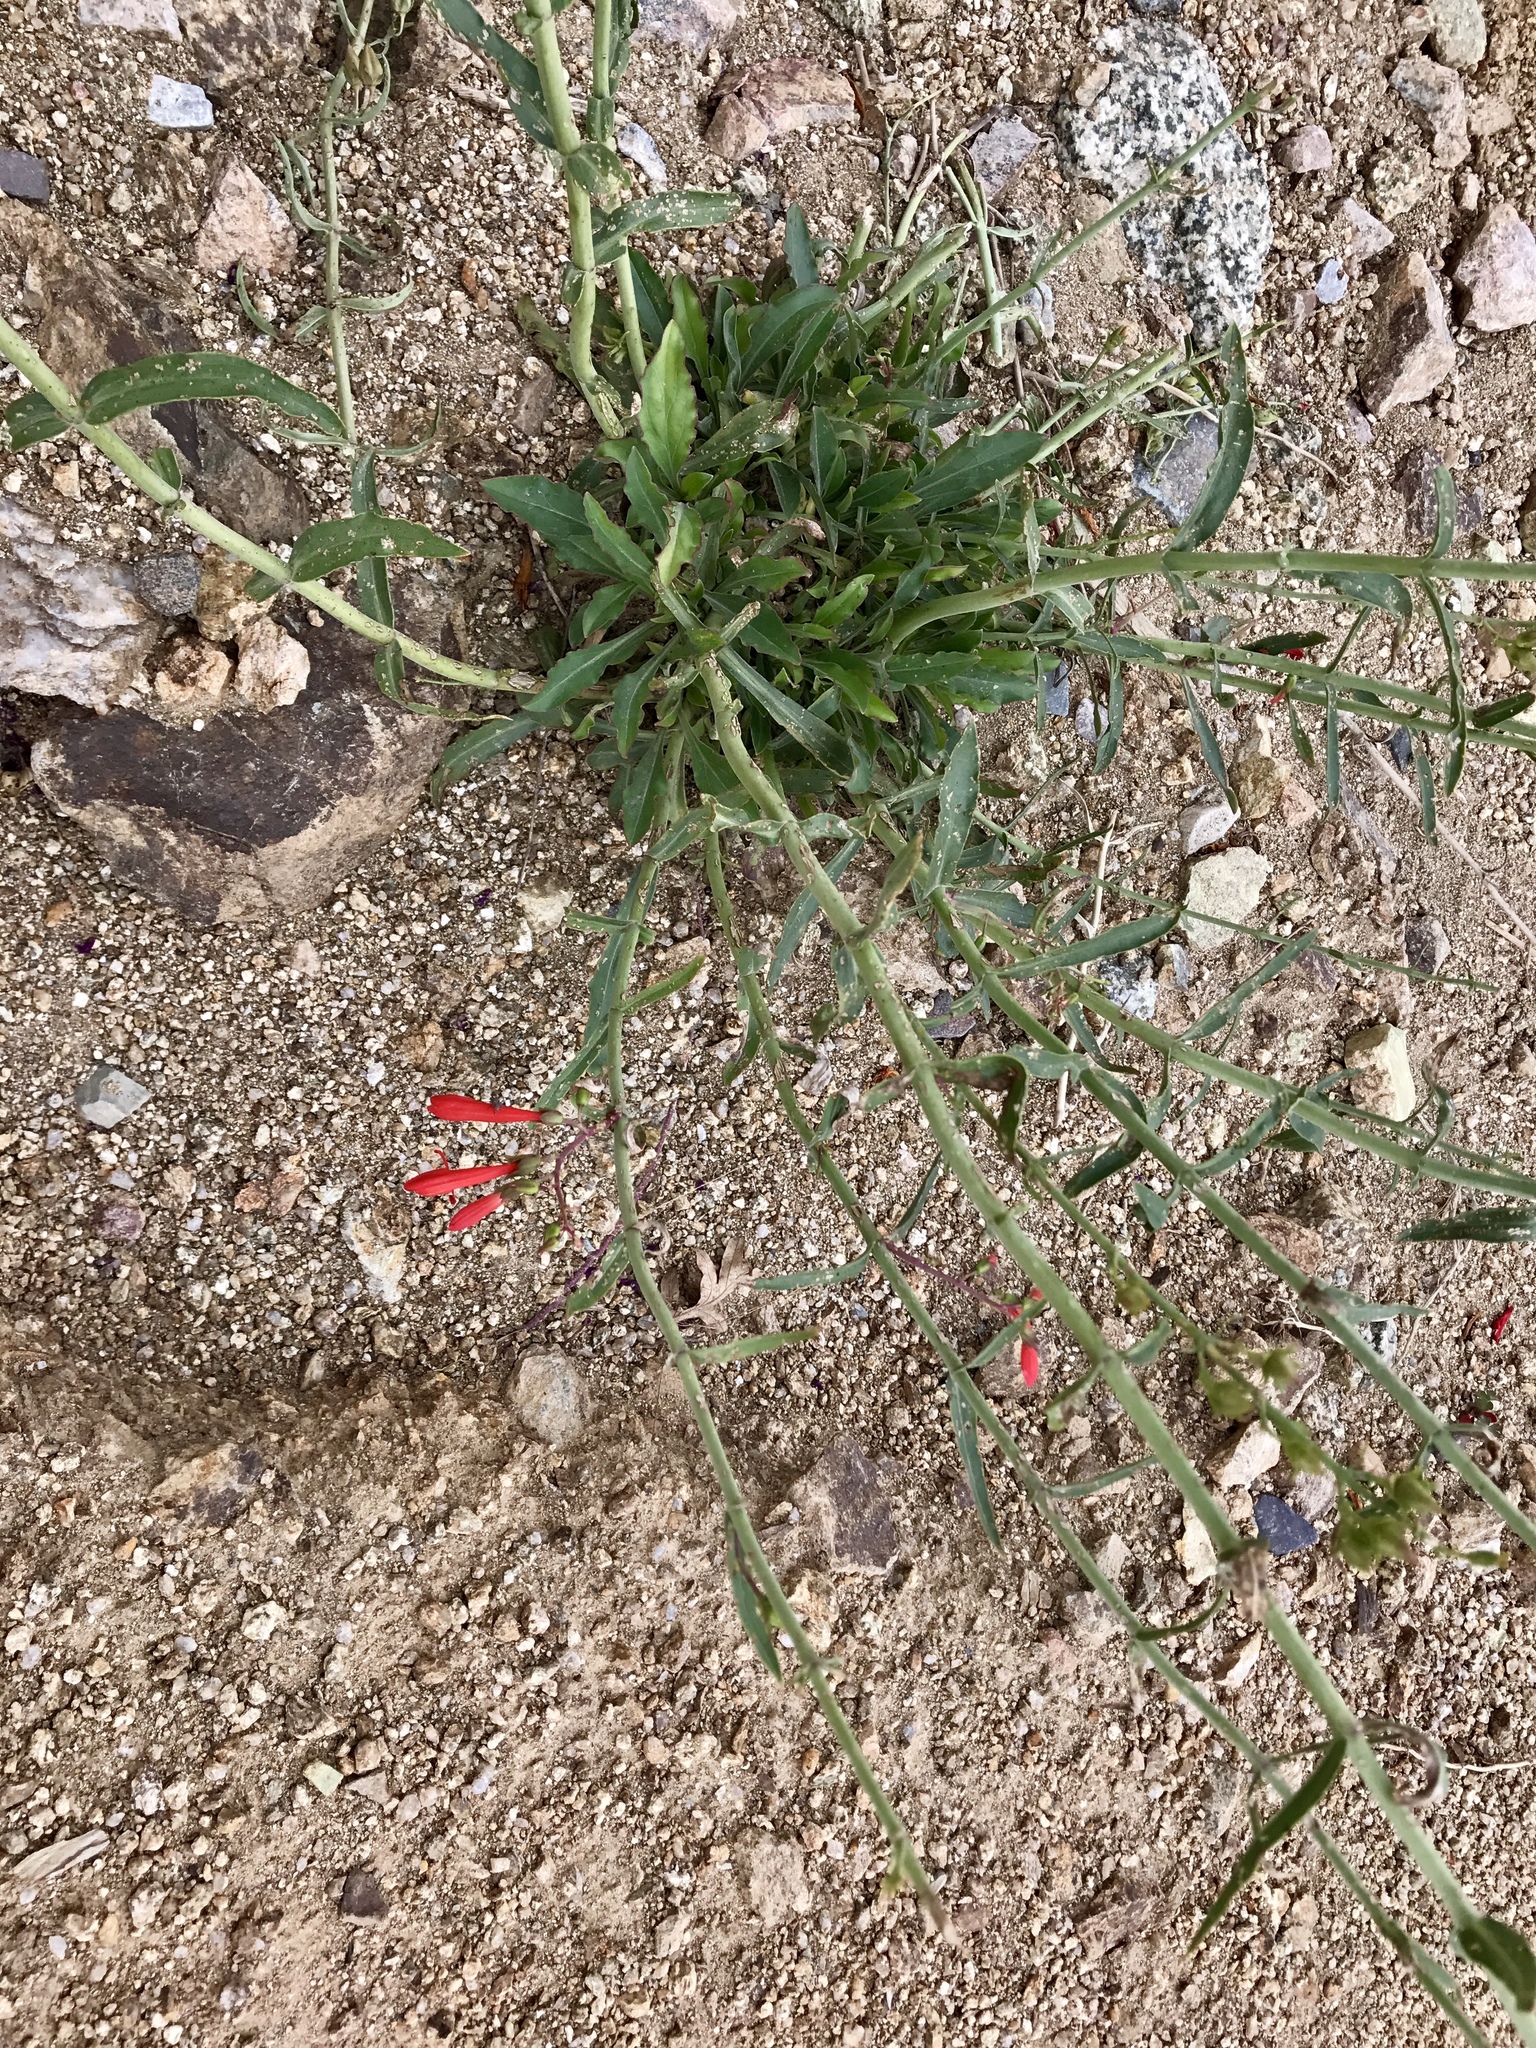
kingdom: Plantae
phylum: Tracheophyta
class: Magnoliopsida
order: Lamiales
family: Plantaginaceae
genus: Penstemon
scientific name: Penstemon barbatus
